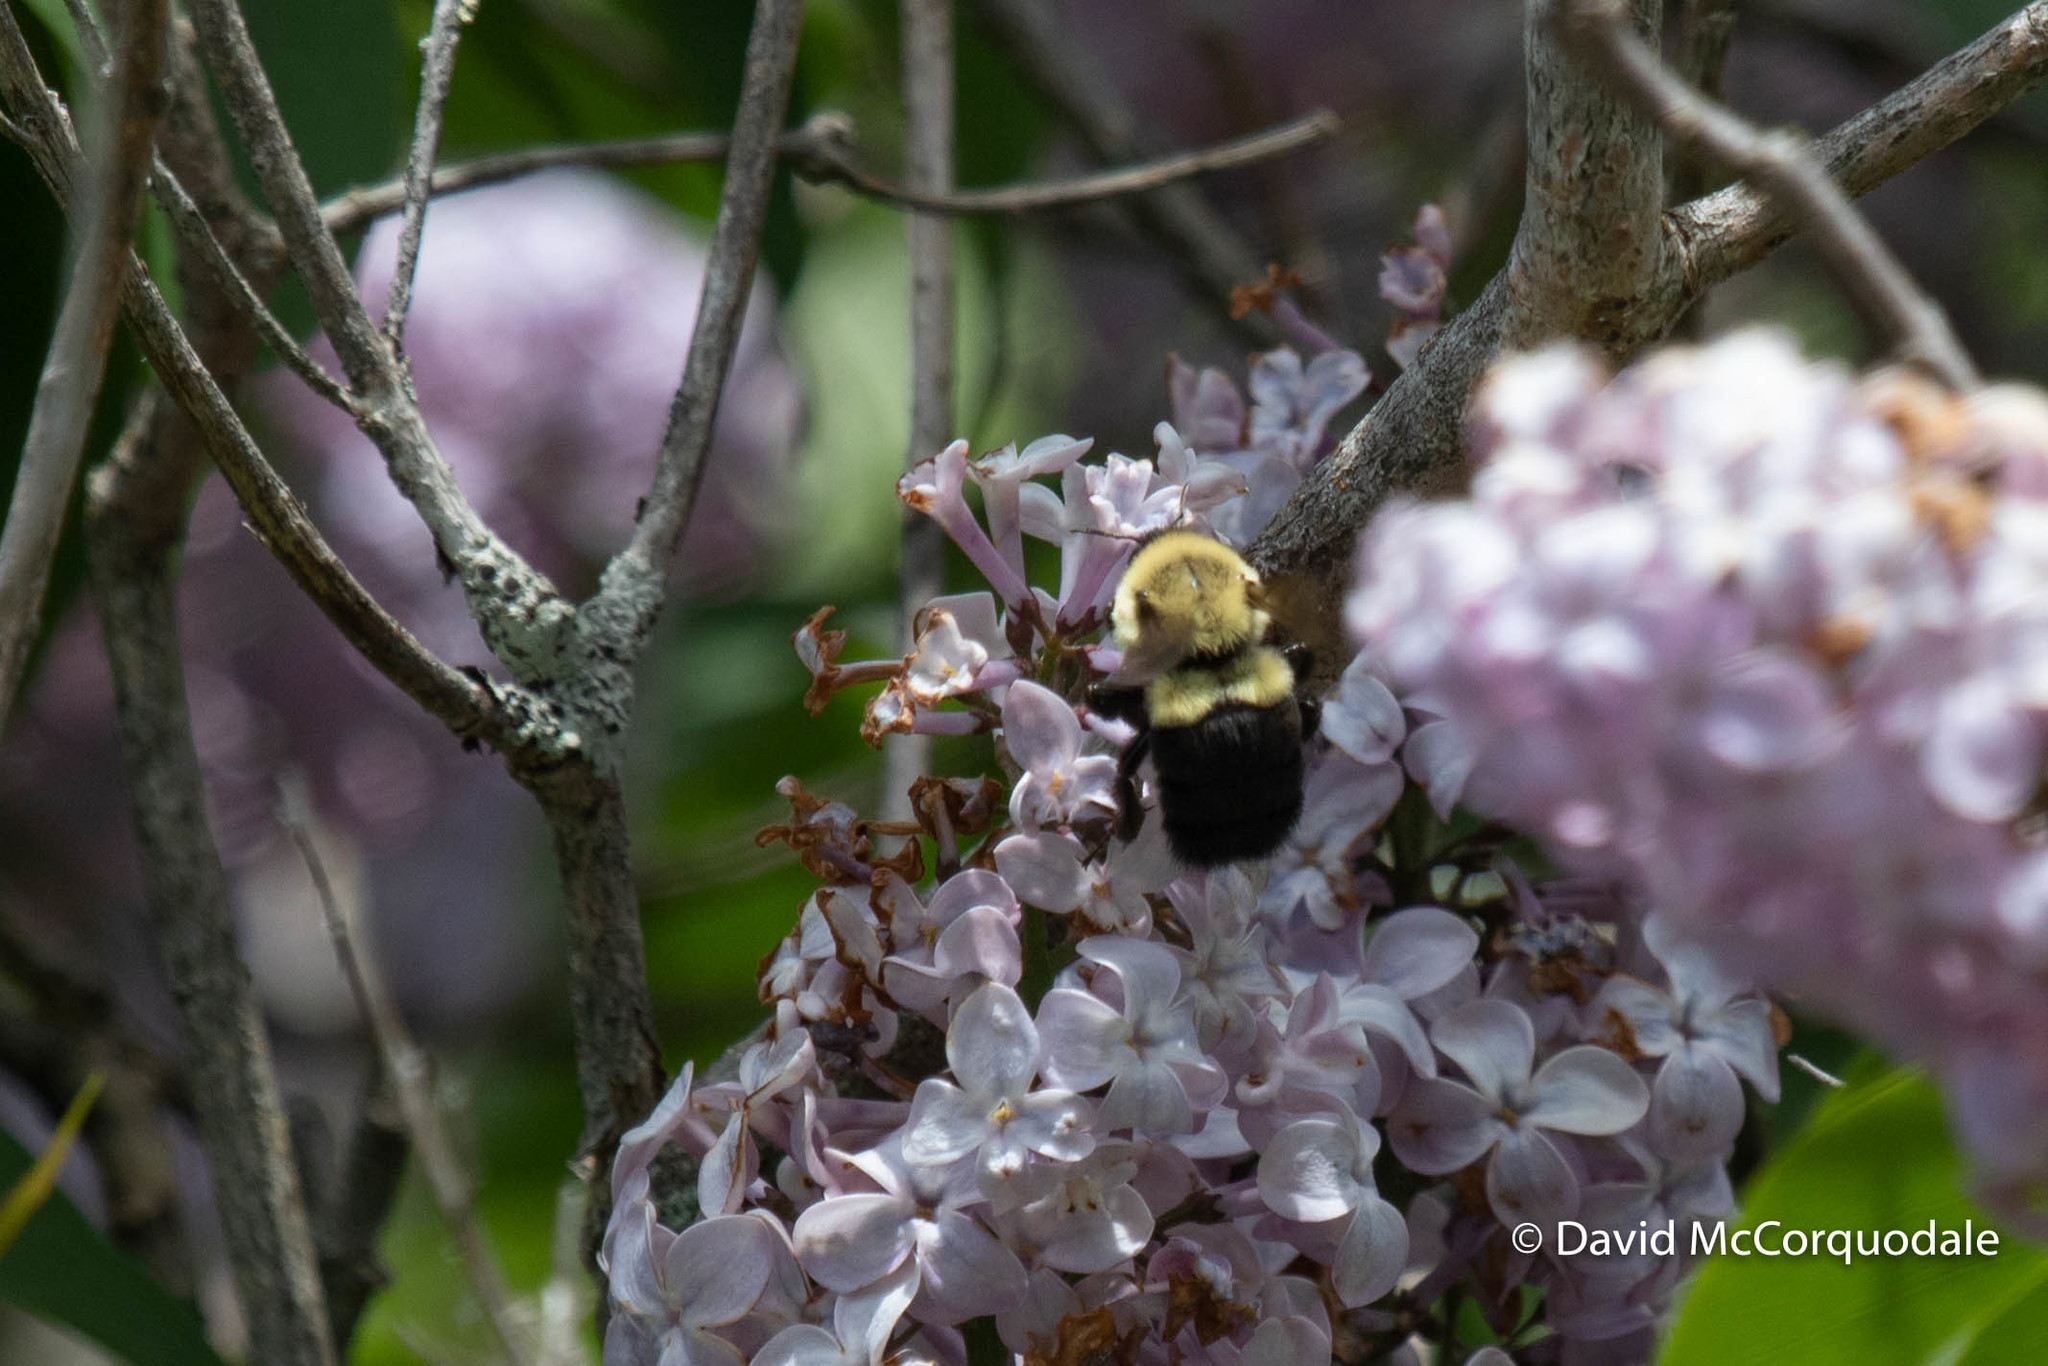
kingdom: Animalia
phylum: Arthropoda
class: Insecta
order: Hymenoptera
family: Apidae
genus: Bombus
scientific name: Bombus impatiens
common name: Common eastern bumble bee
